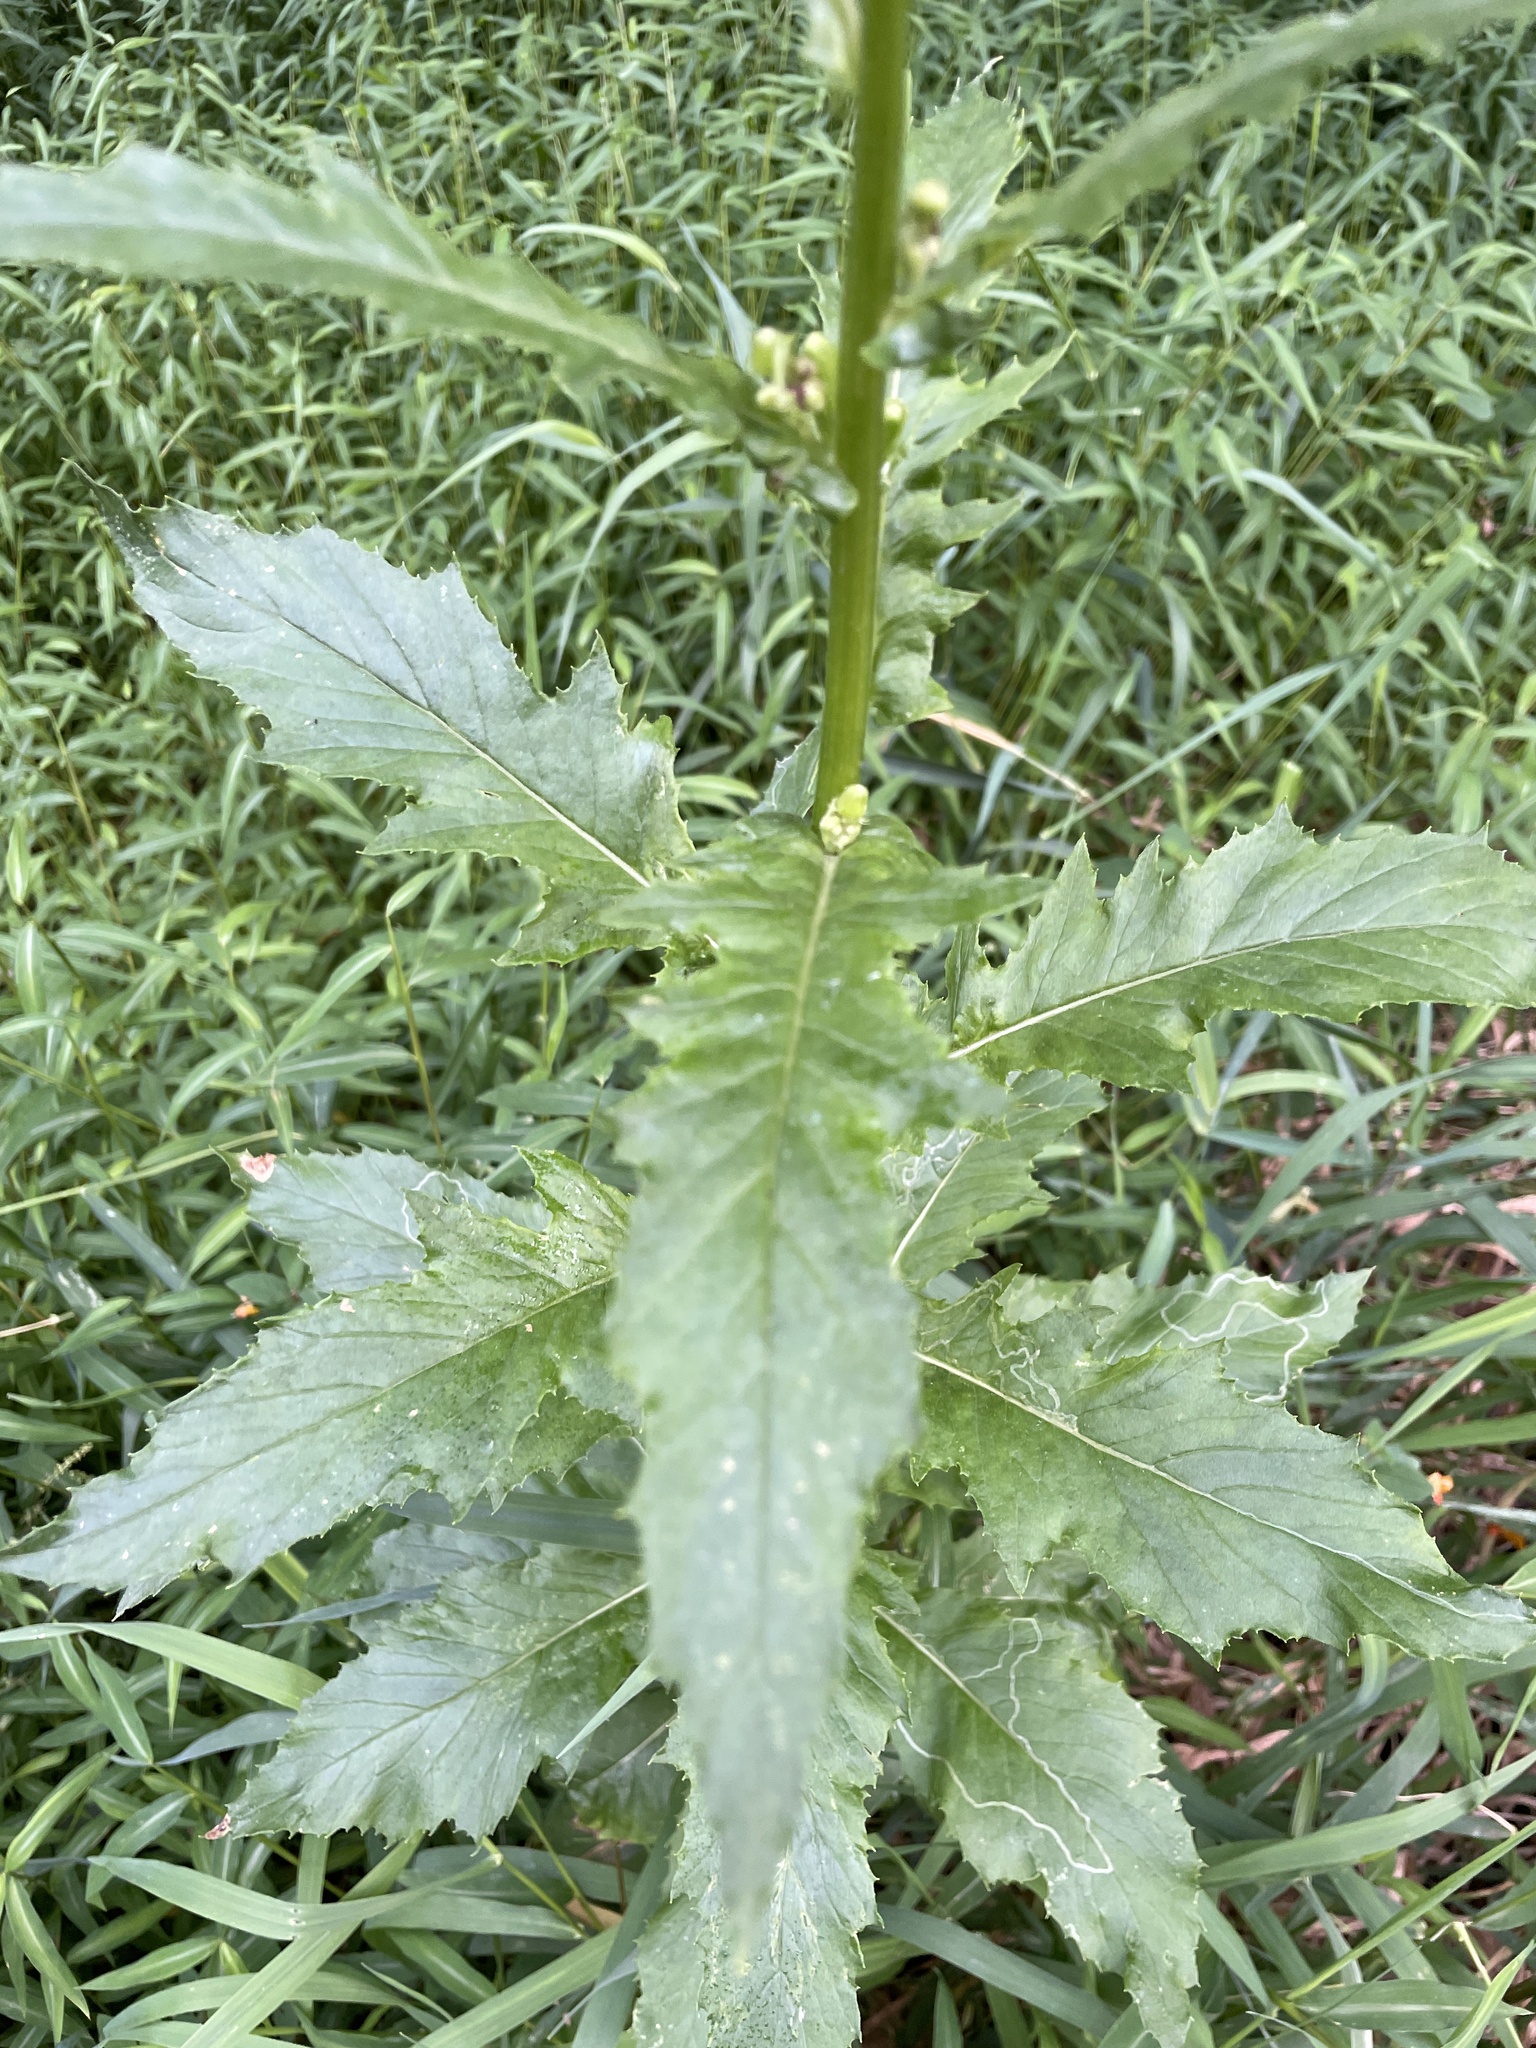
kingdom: Plantae
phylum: Tracheophyta
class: Magnoliopsida
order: Asterales
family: Asteraceae
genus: Erechtites
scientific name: Erechtites hieraciifolius
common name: American burnweed
